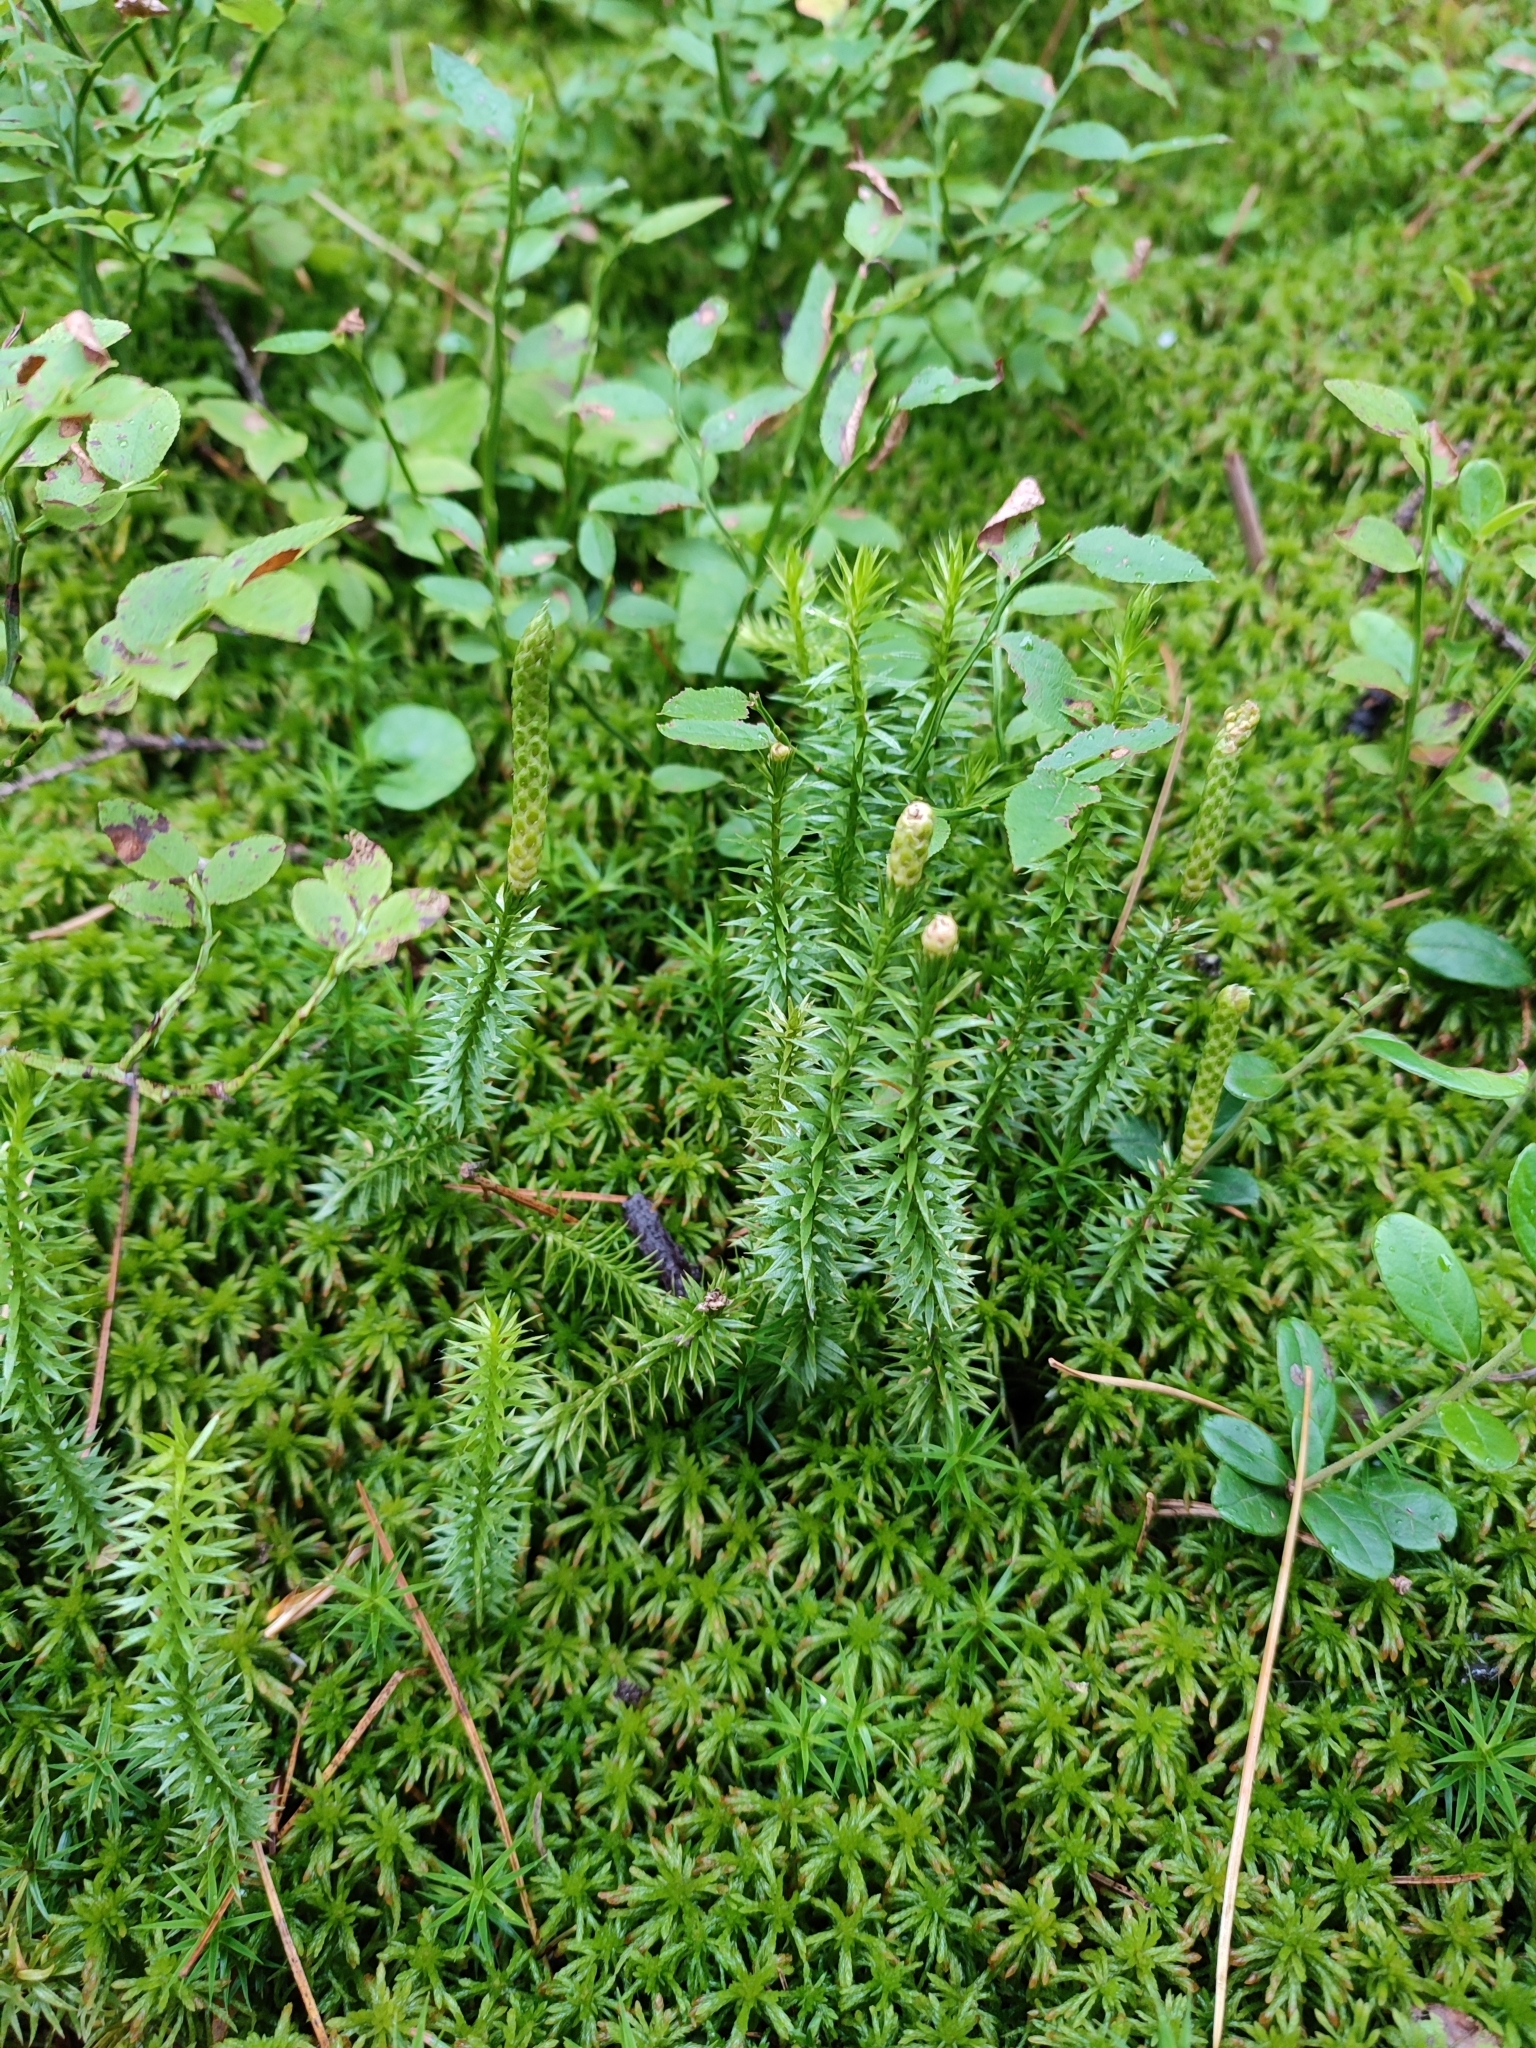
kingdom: Plantae
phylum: Tracheophyta
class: Lycopodiopsida
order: Lycopodiales
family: Lycopodiaceae
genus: Spinulum
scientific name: Spinulum annotinum
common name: Interrupted club-moss
